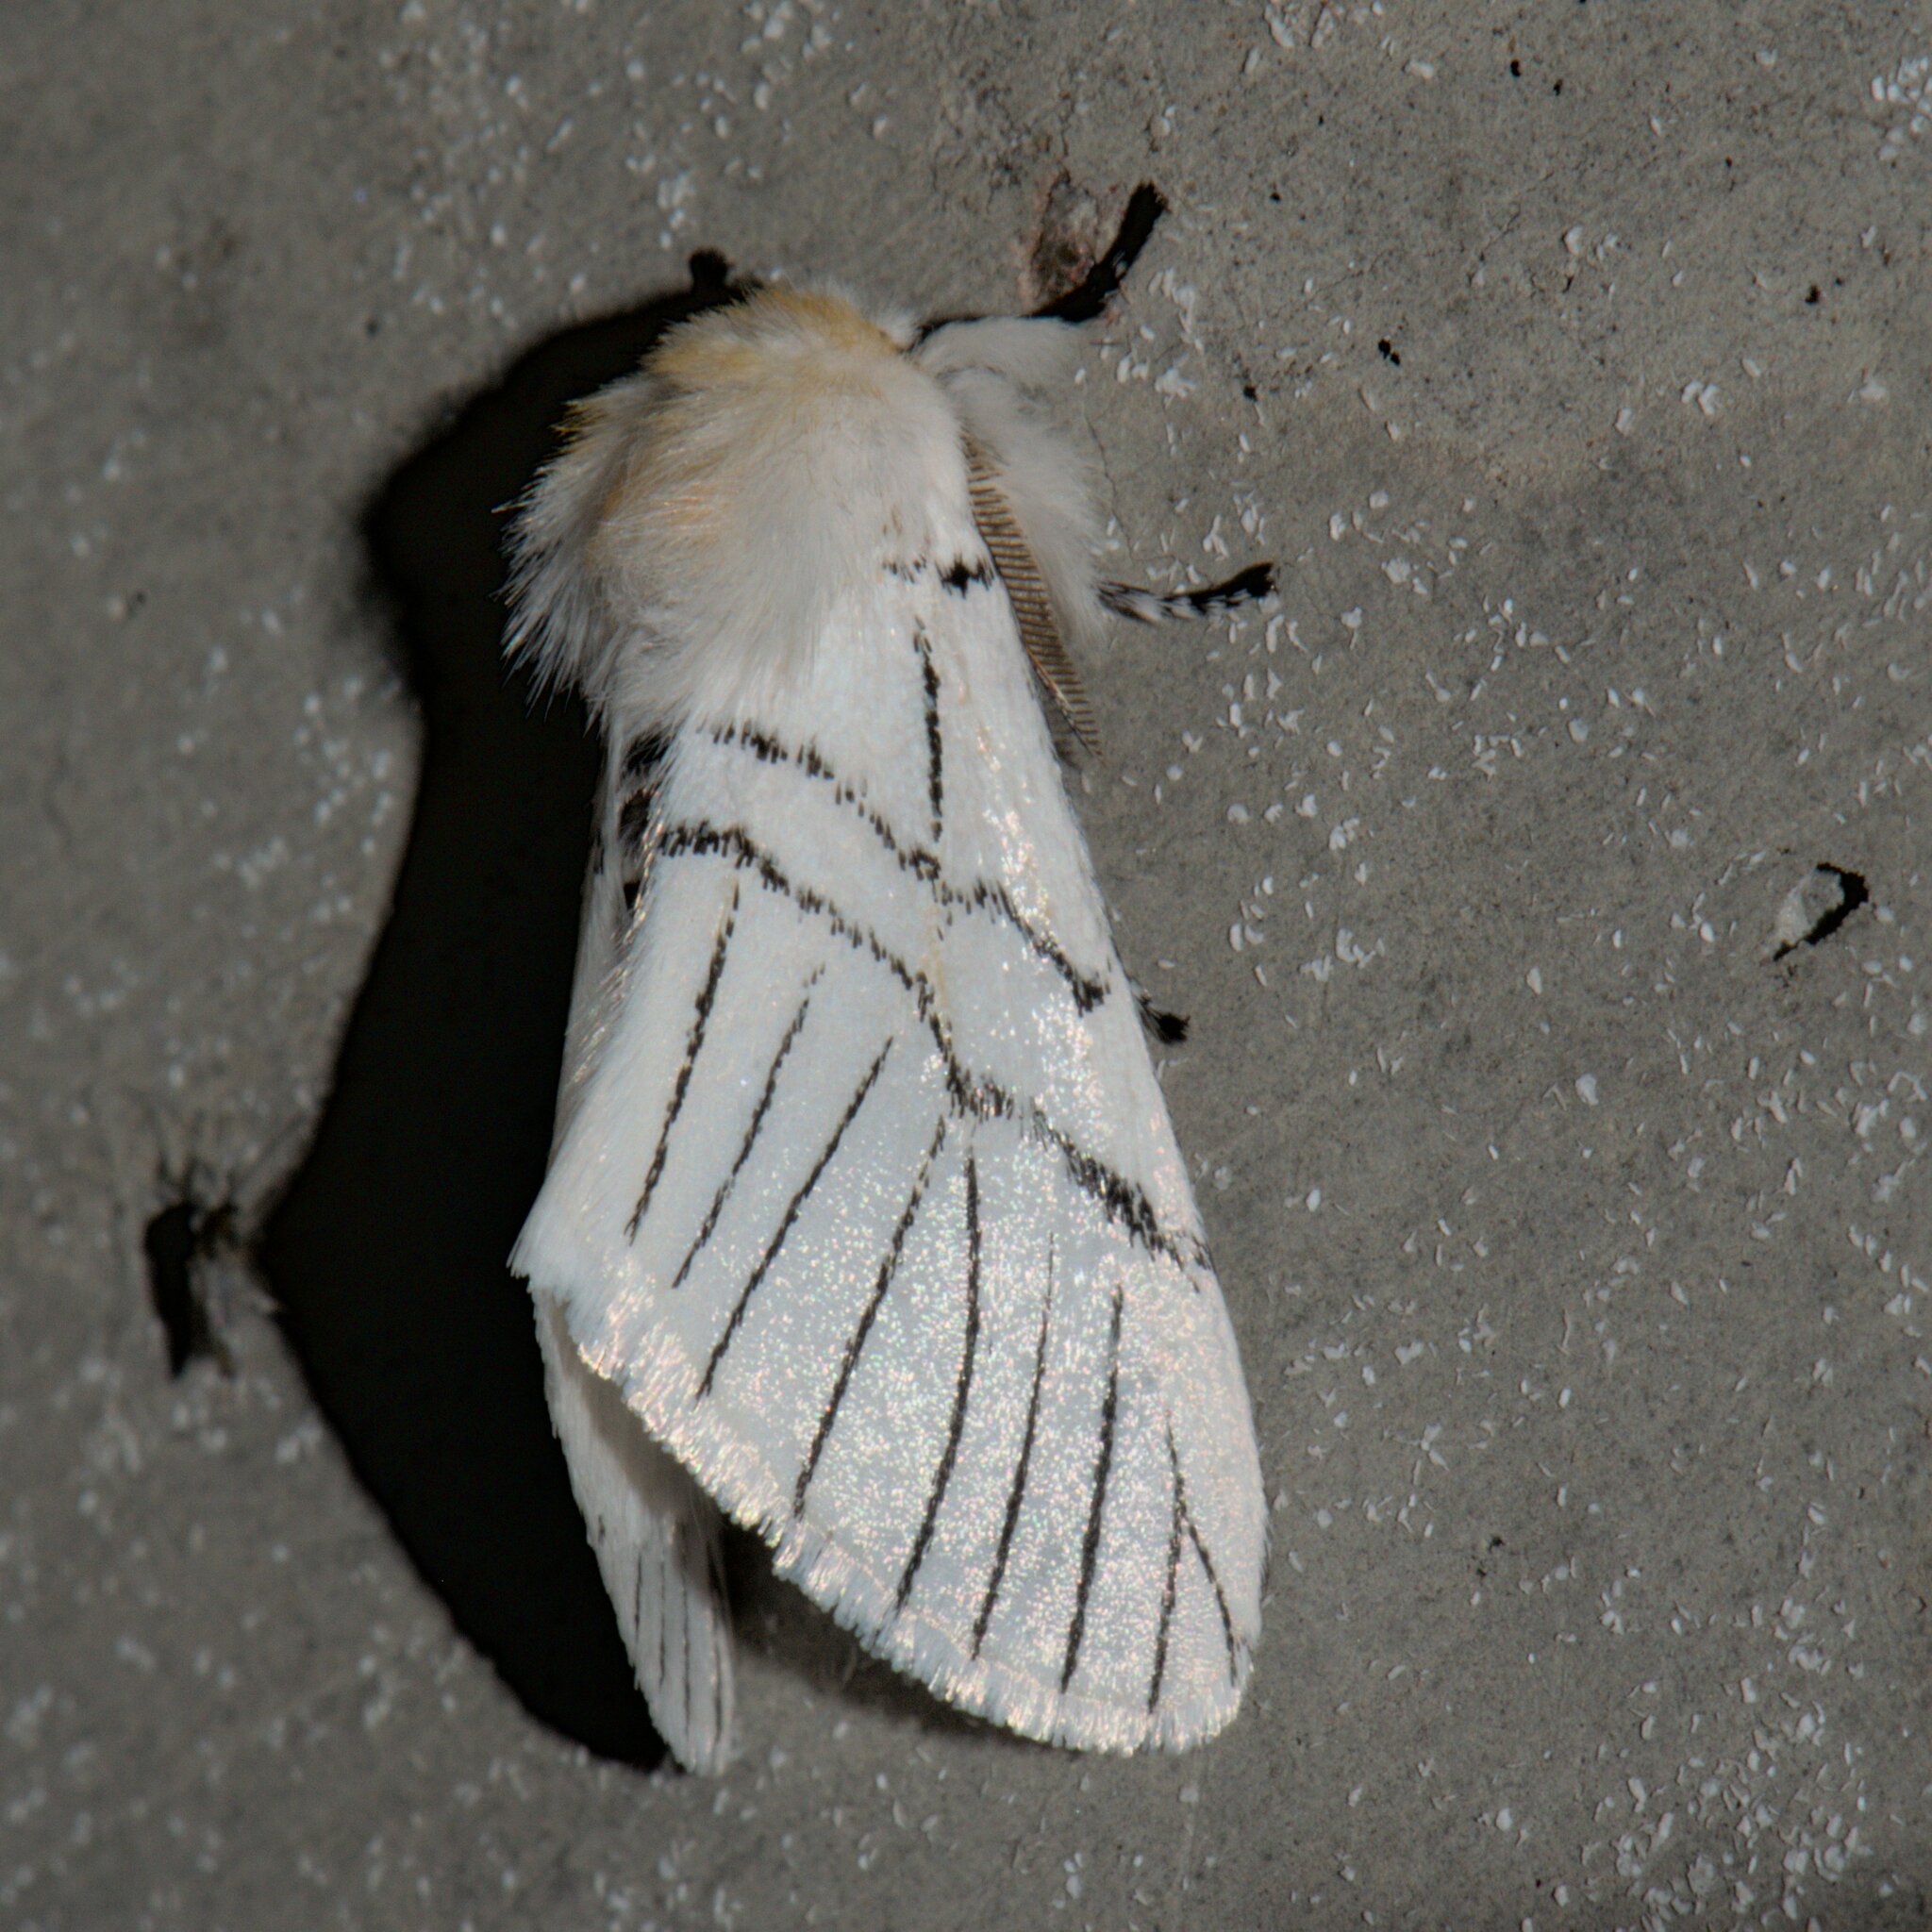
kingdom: Animalia
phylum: Arthropoda
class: Insecta
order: Lepidoptera
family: Notodontidae
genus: Oligoclona
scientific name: Oligoclona chrysolopha
